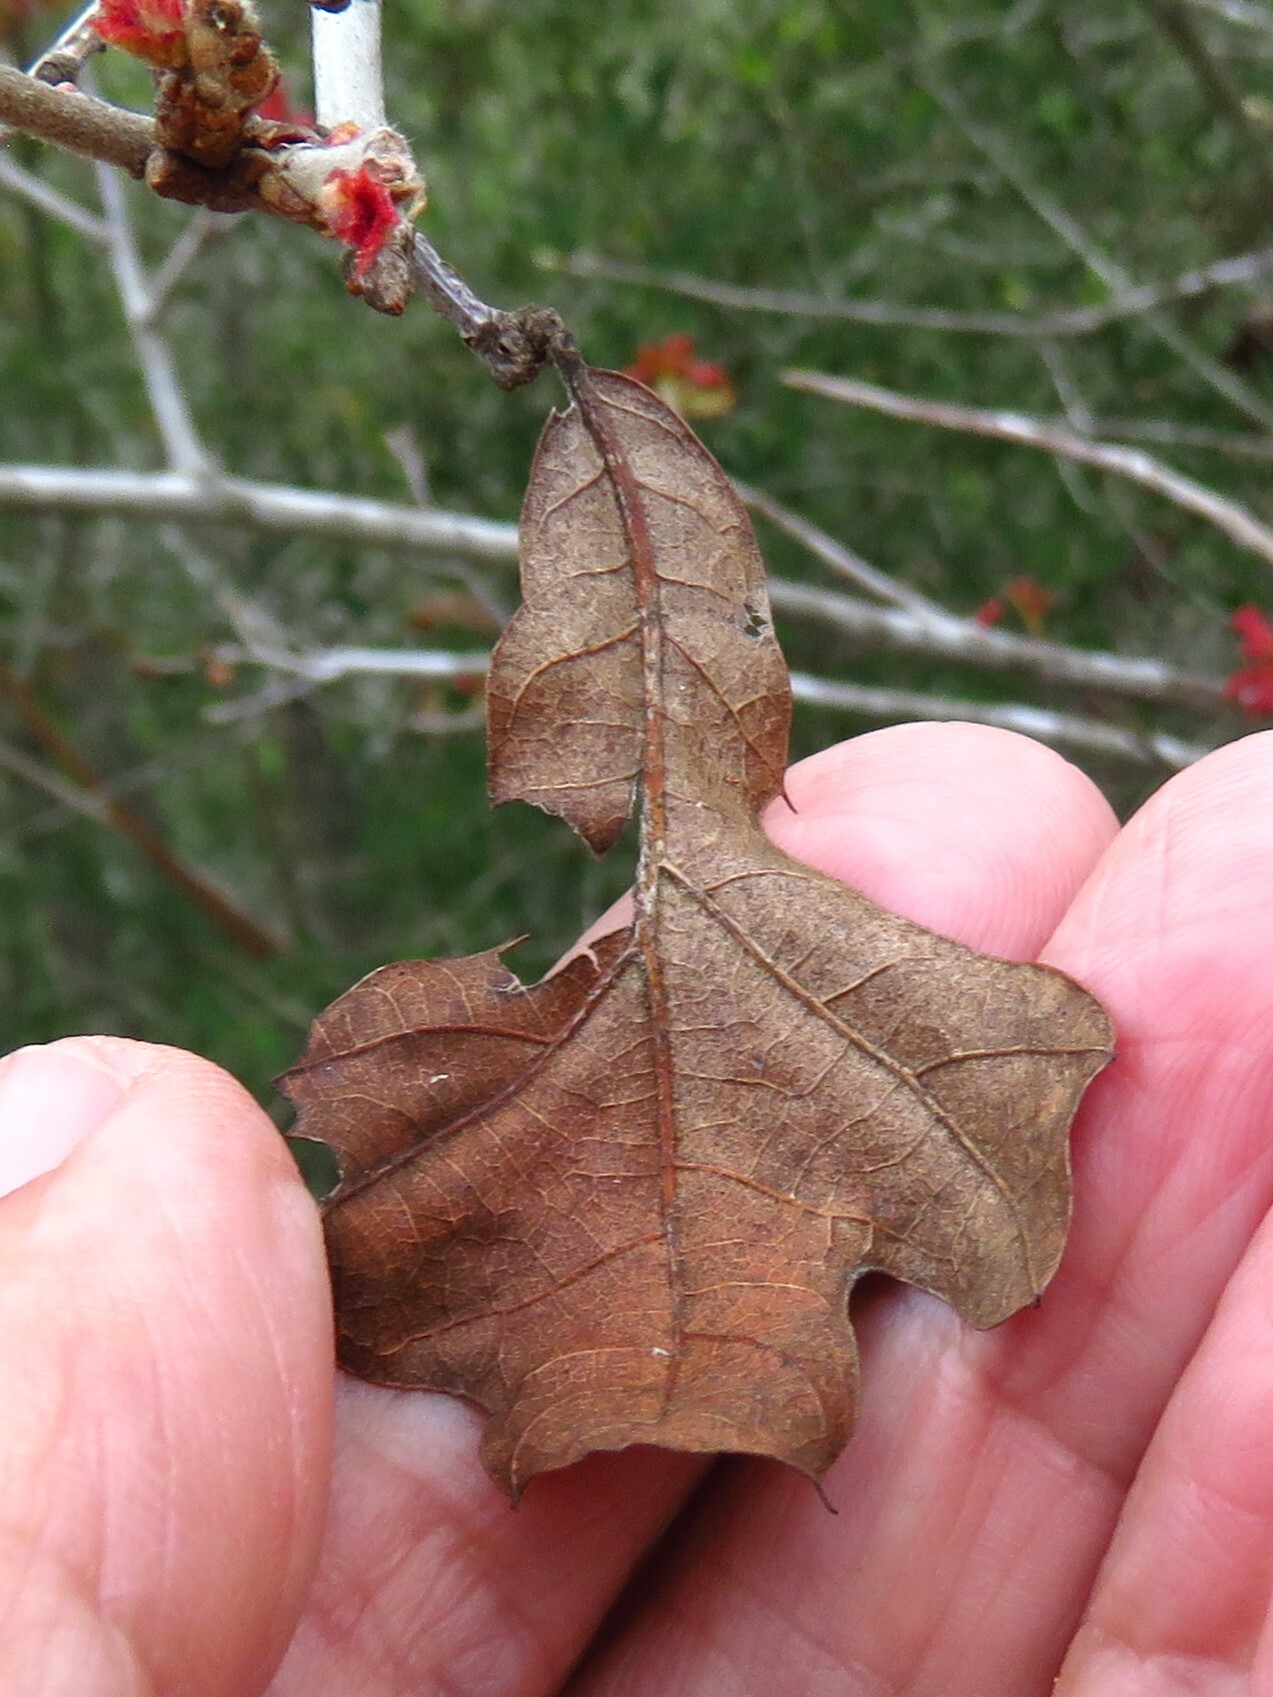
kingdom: Plantae
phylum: Tracheophyta
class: Magnoliopsida
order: Fagales
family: Fagaceae
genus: Quercus
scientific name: Quercus marilandica
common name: Blackjack oak
